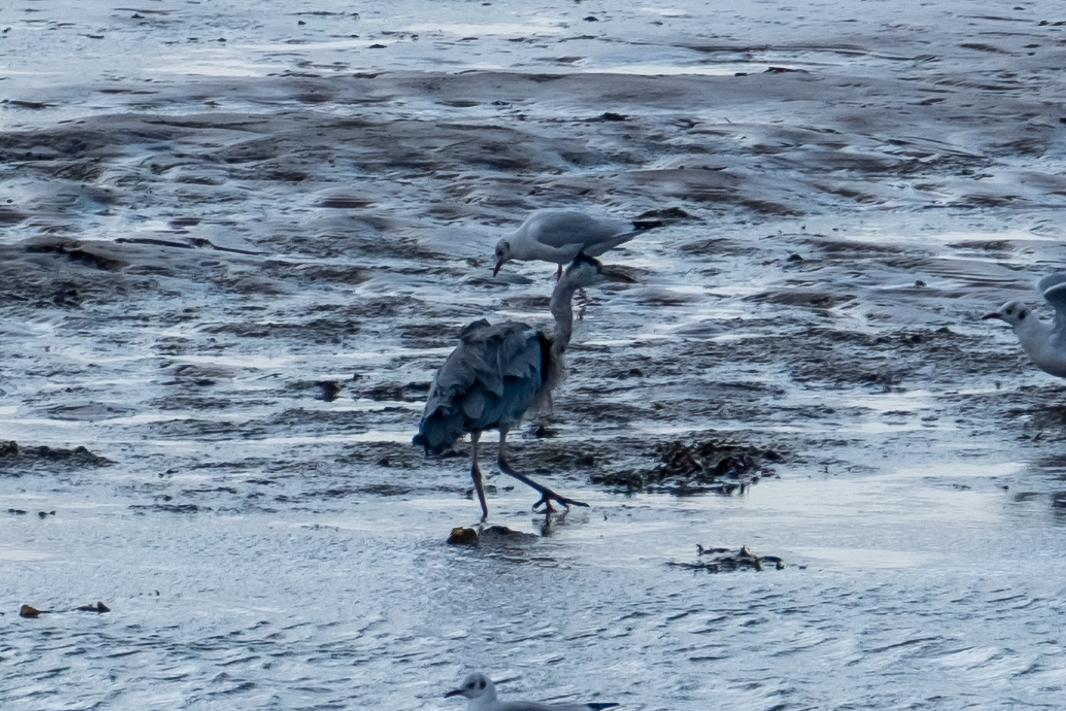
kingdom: Animalia
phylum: Chordata
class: Aves
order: Pelecaniformes
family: Ardeidae
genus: Ardea
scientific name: Ardea cinerea
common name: Grey heron
